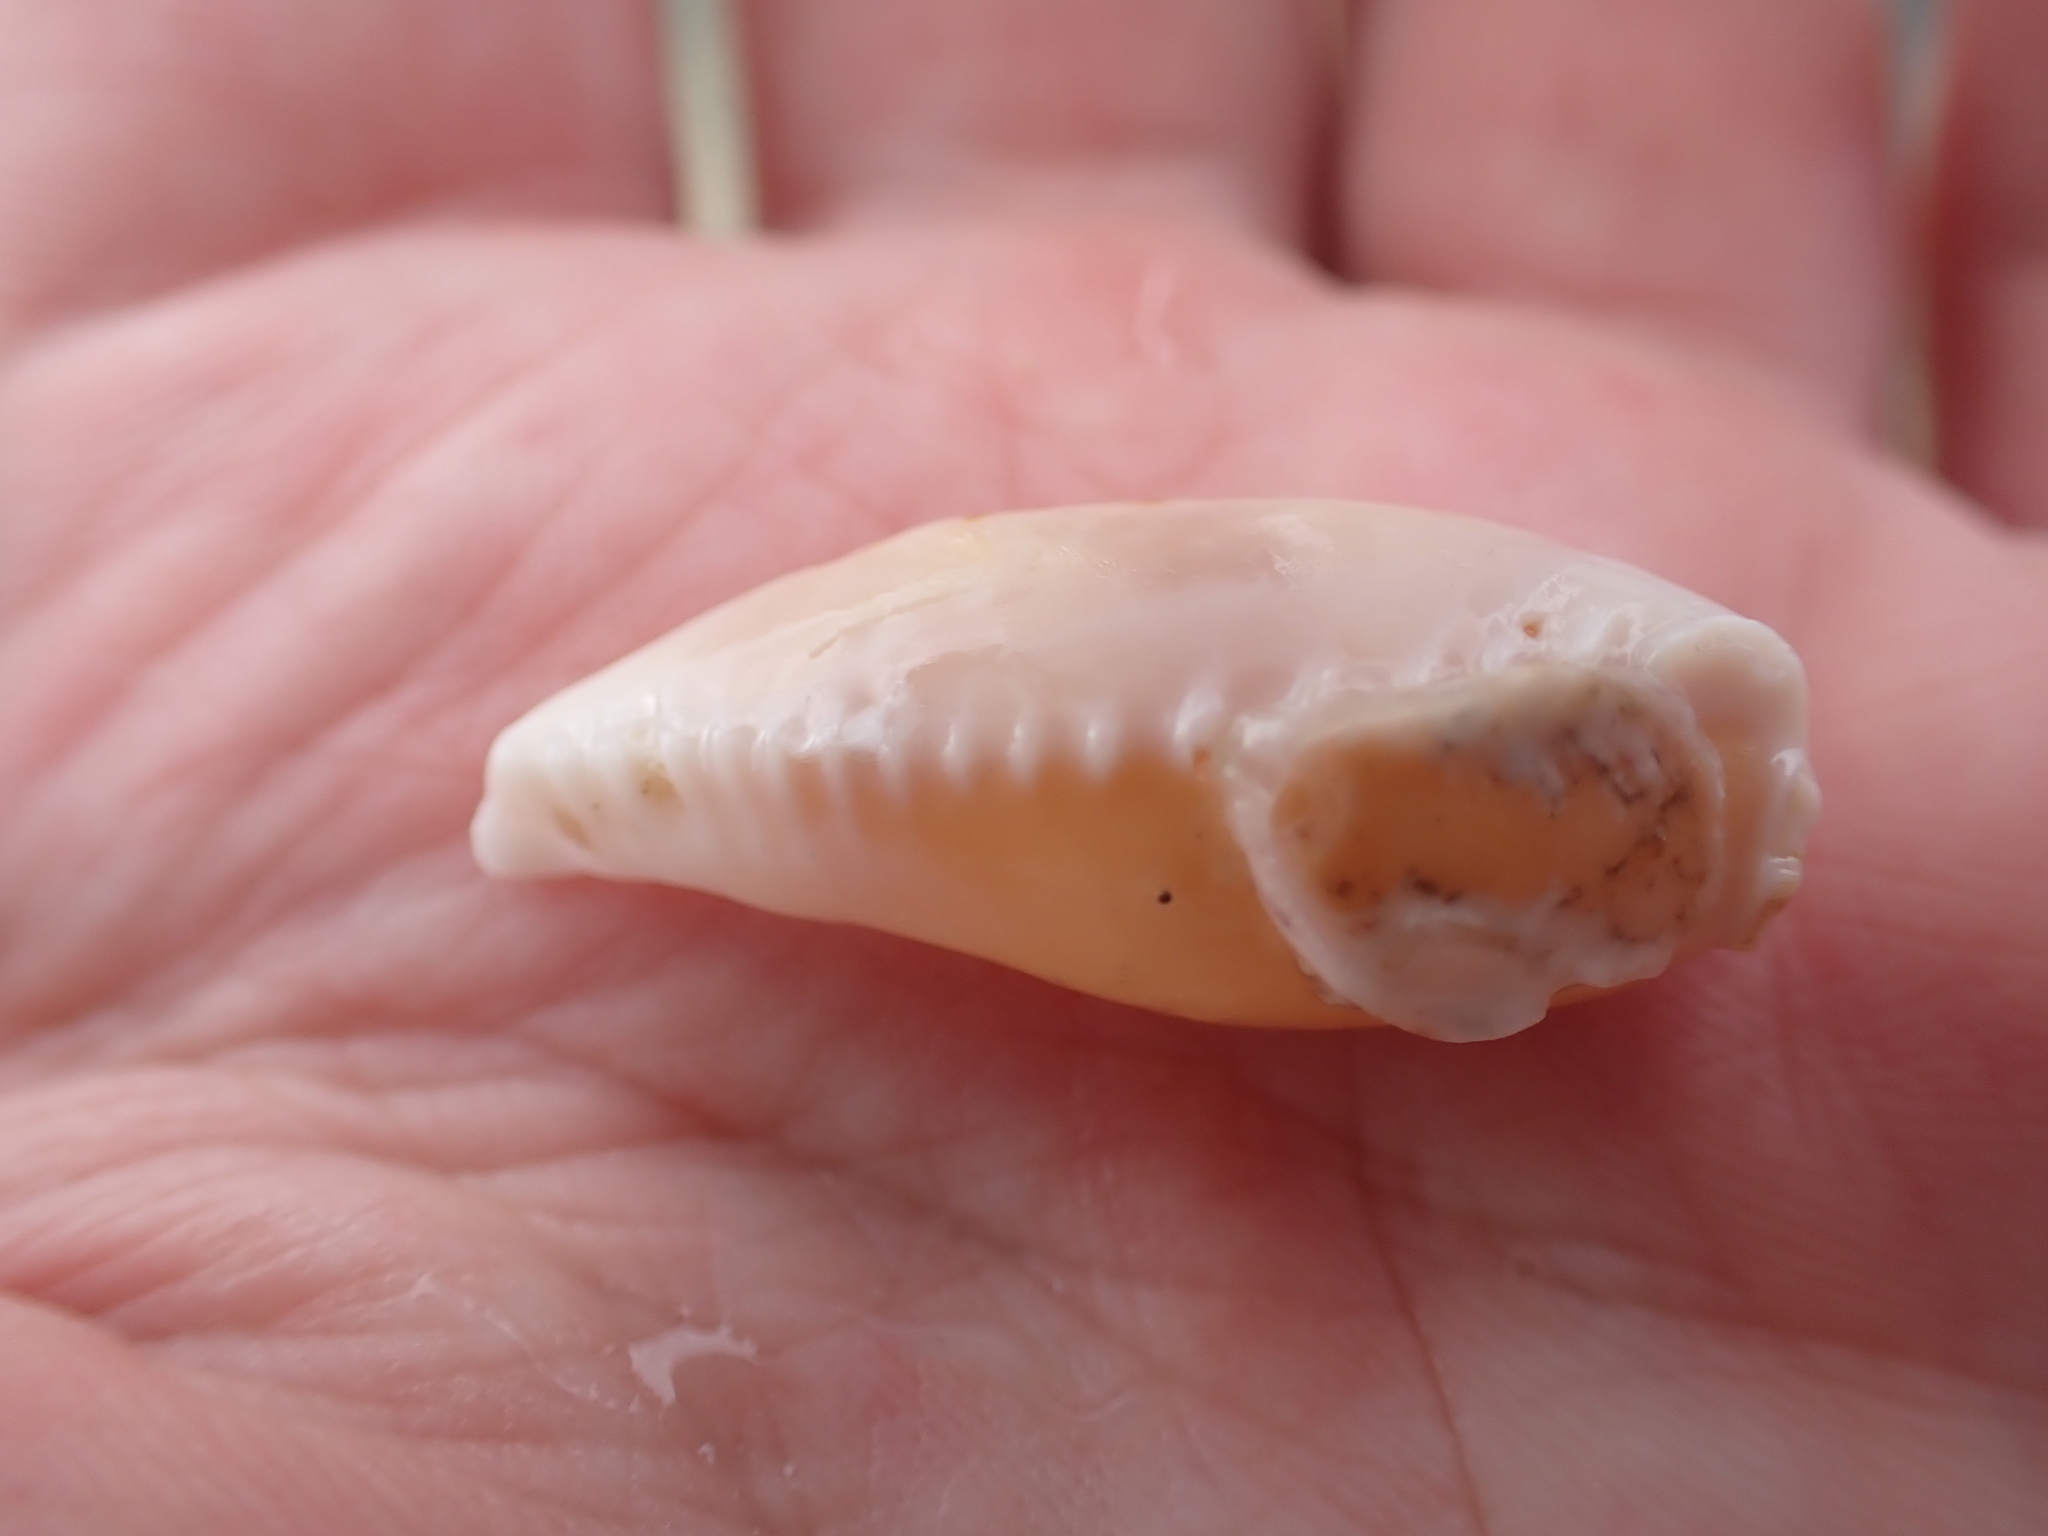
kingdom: Animalia
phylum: Mollusca
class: Gastropoda
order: Littorinimorpha
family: Cypraeidae
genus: Naria
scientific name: Naria erosa
